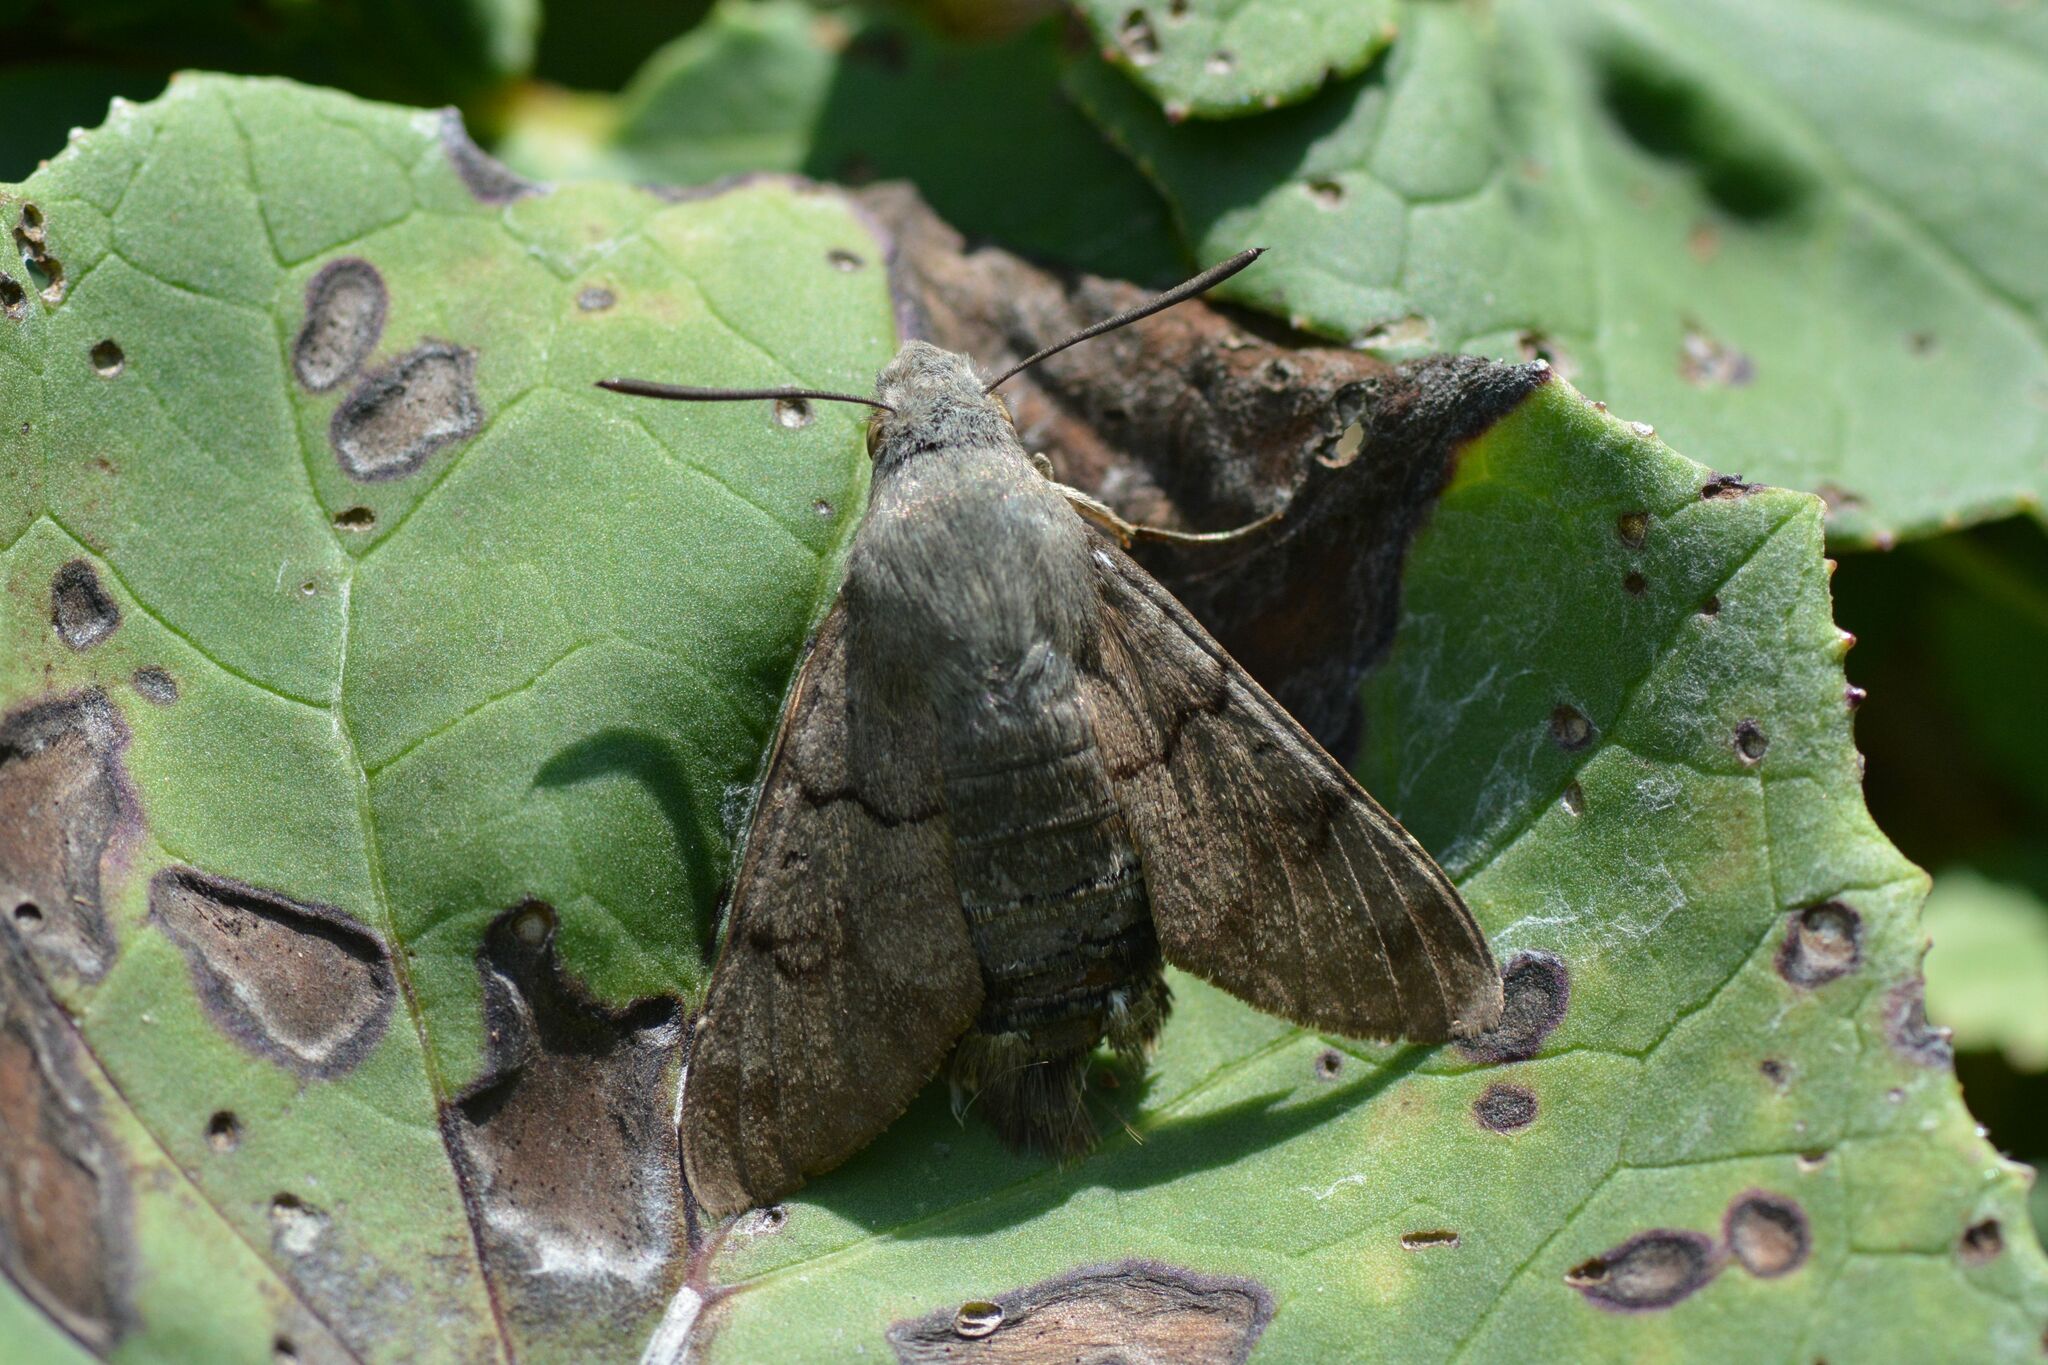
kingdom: Animalia
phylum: Arthropoda
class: Insecta
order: Lepidoptera
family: Sphingidae
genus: Macroglossum
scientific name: Macroglossum stellatarum
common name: Humming-bird hawk-moth
